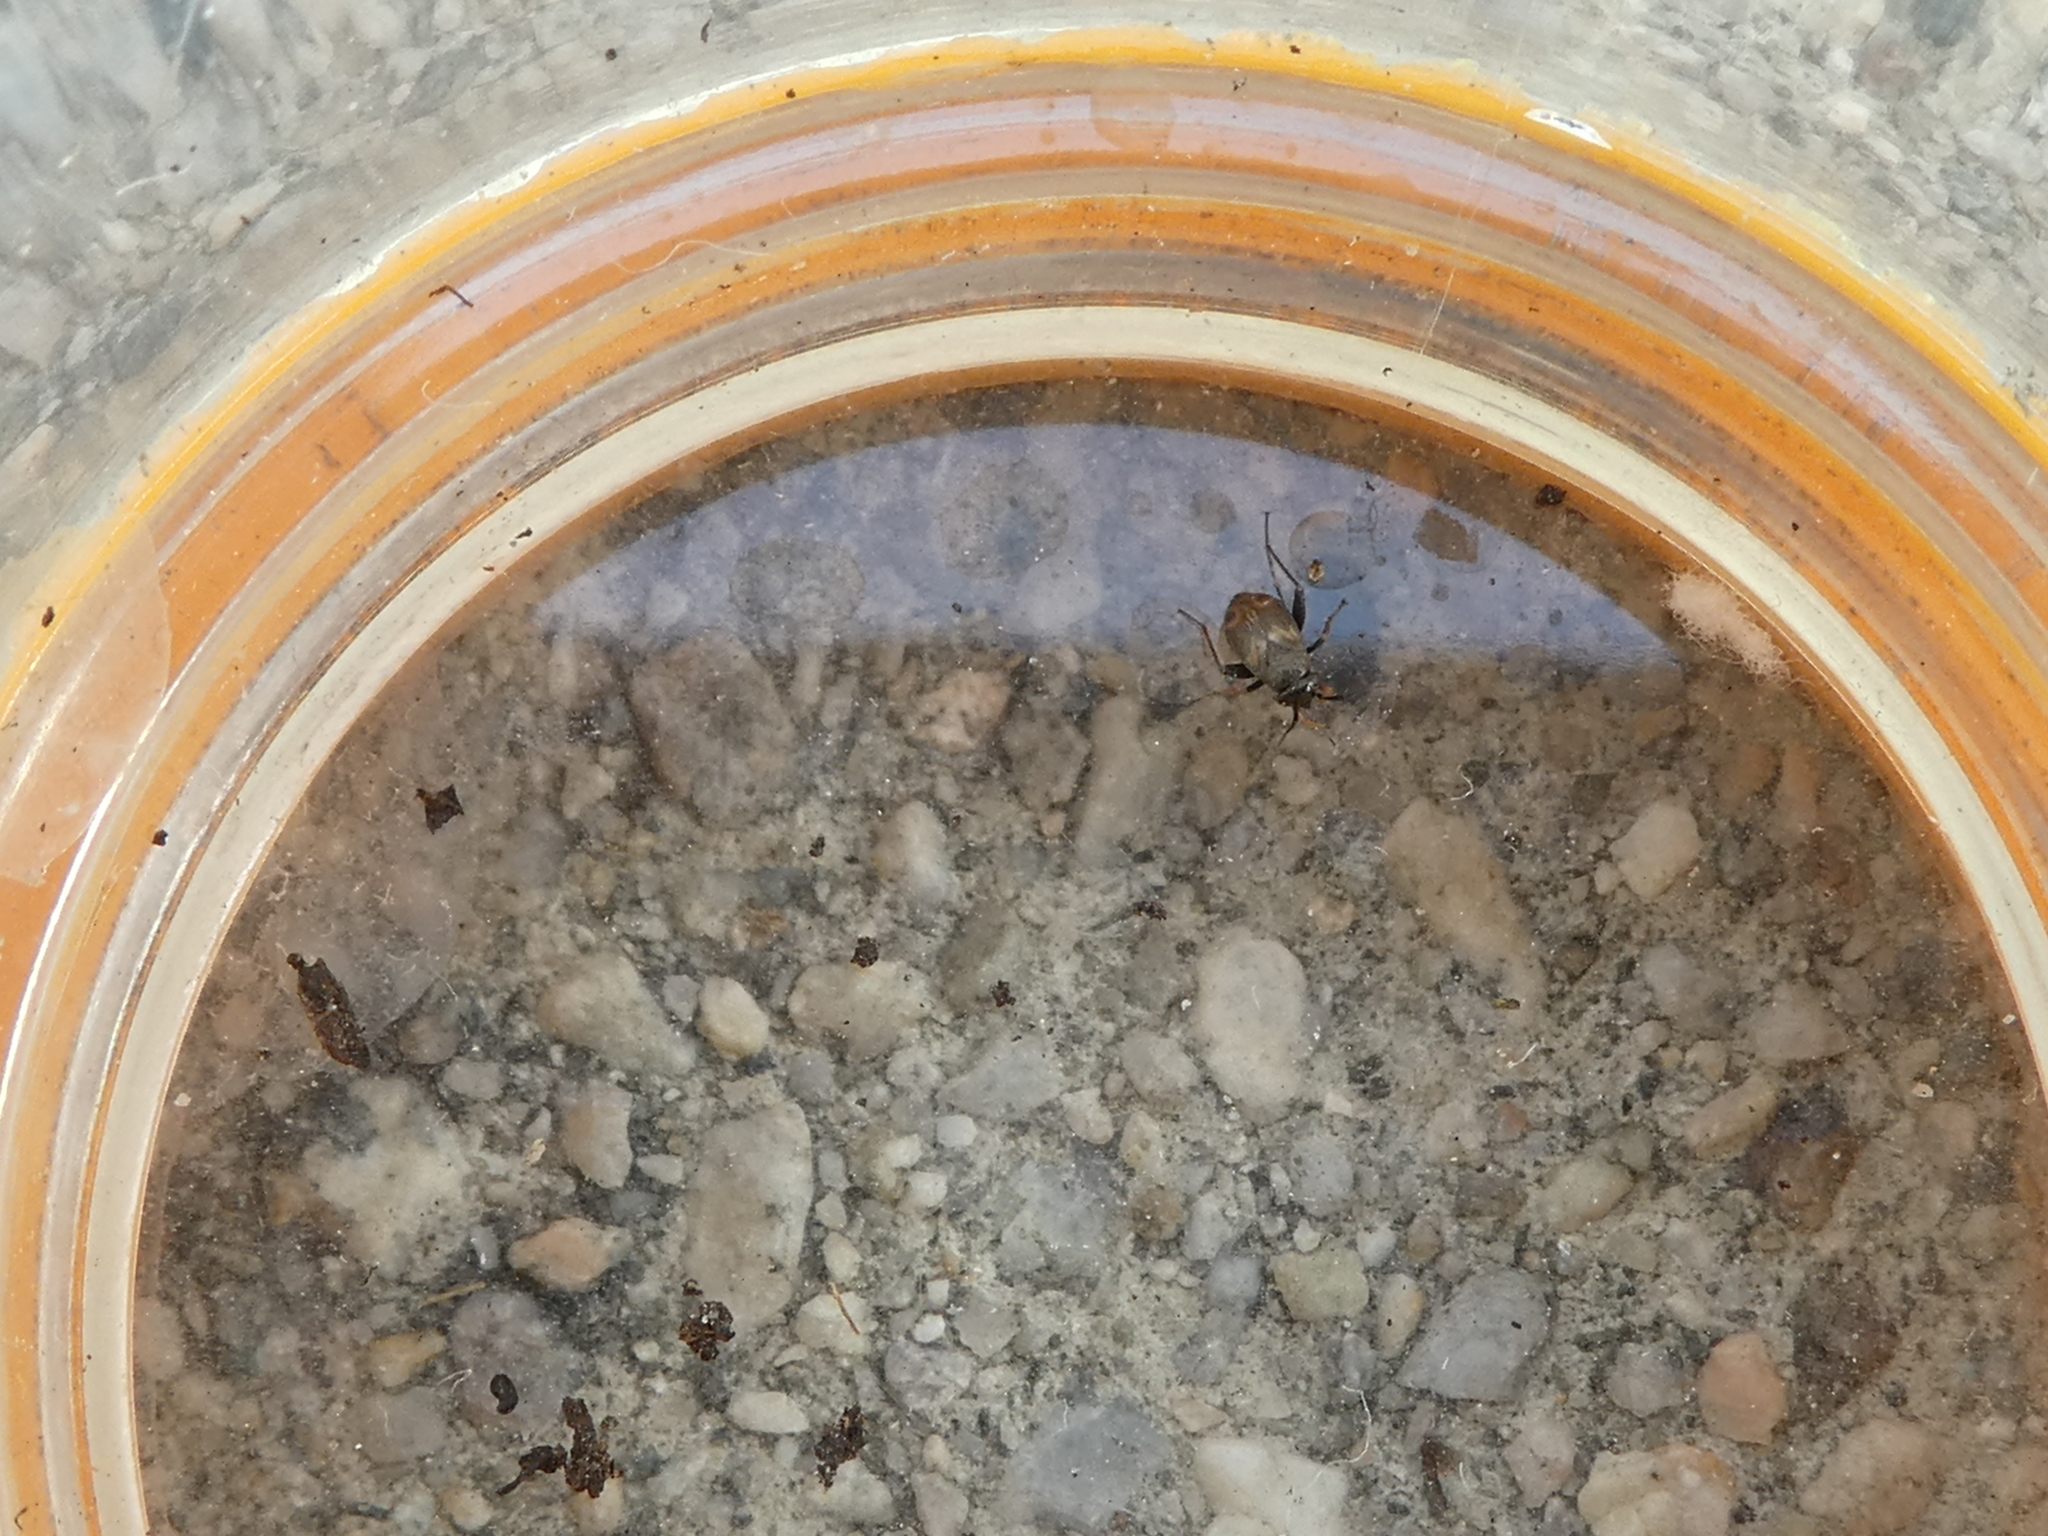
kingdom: Animalia
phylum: Arthropoda
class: Insecta
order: Hemiptera
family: Miridae
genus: Spanagonicus
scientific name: Spanagonicus albofasciatus
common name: Whitemarked fleahopper
